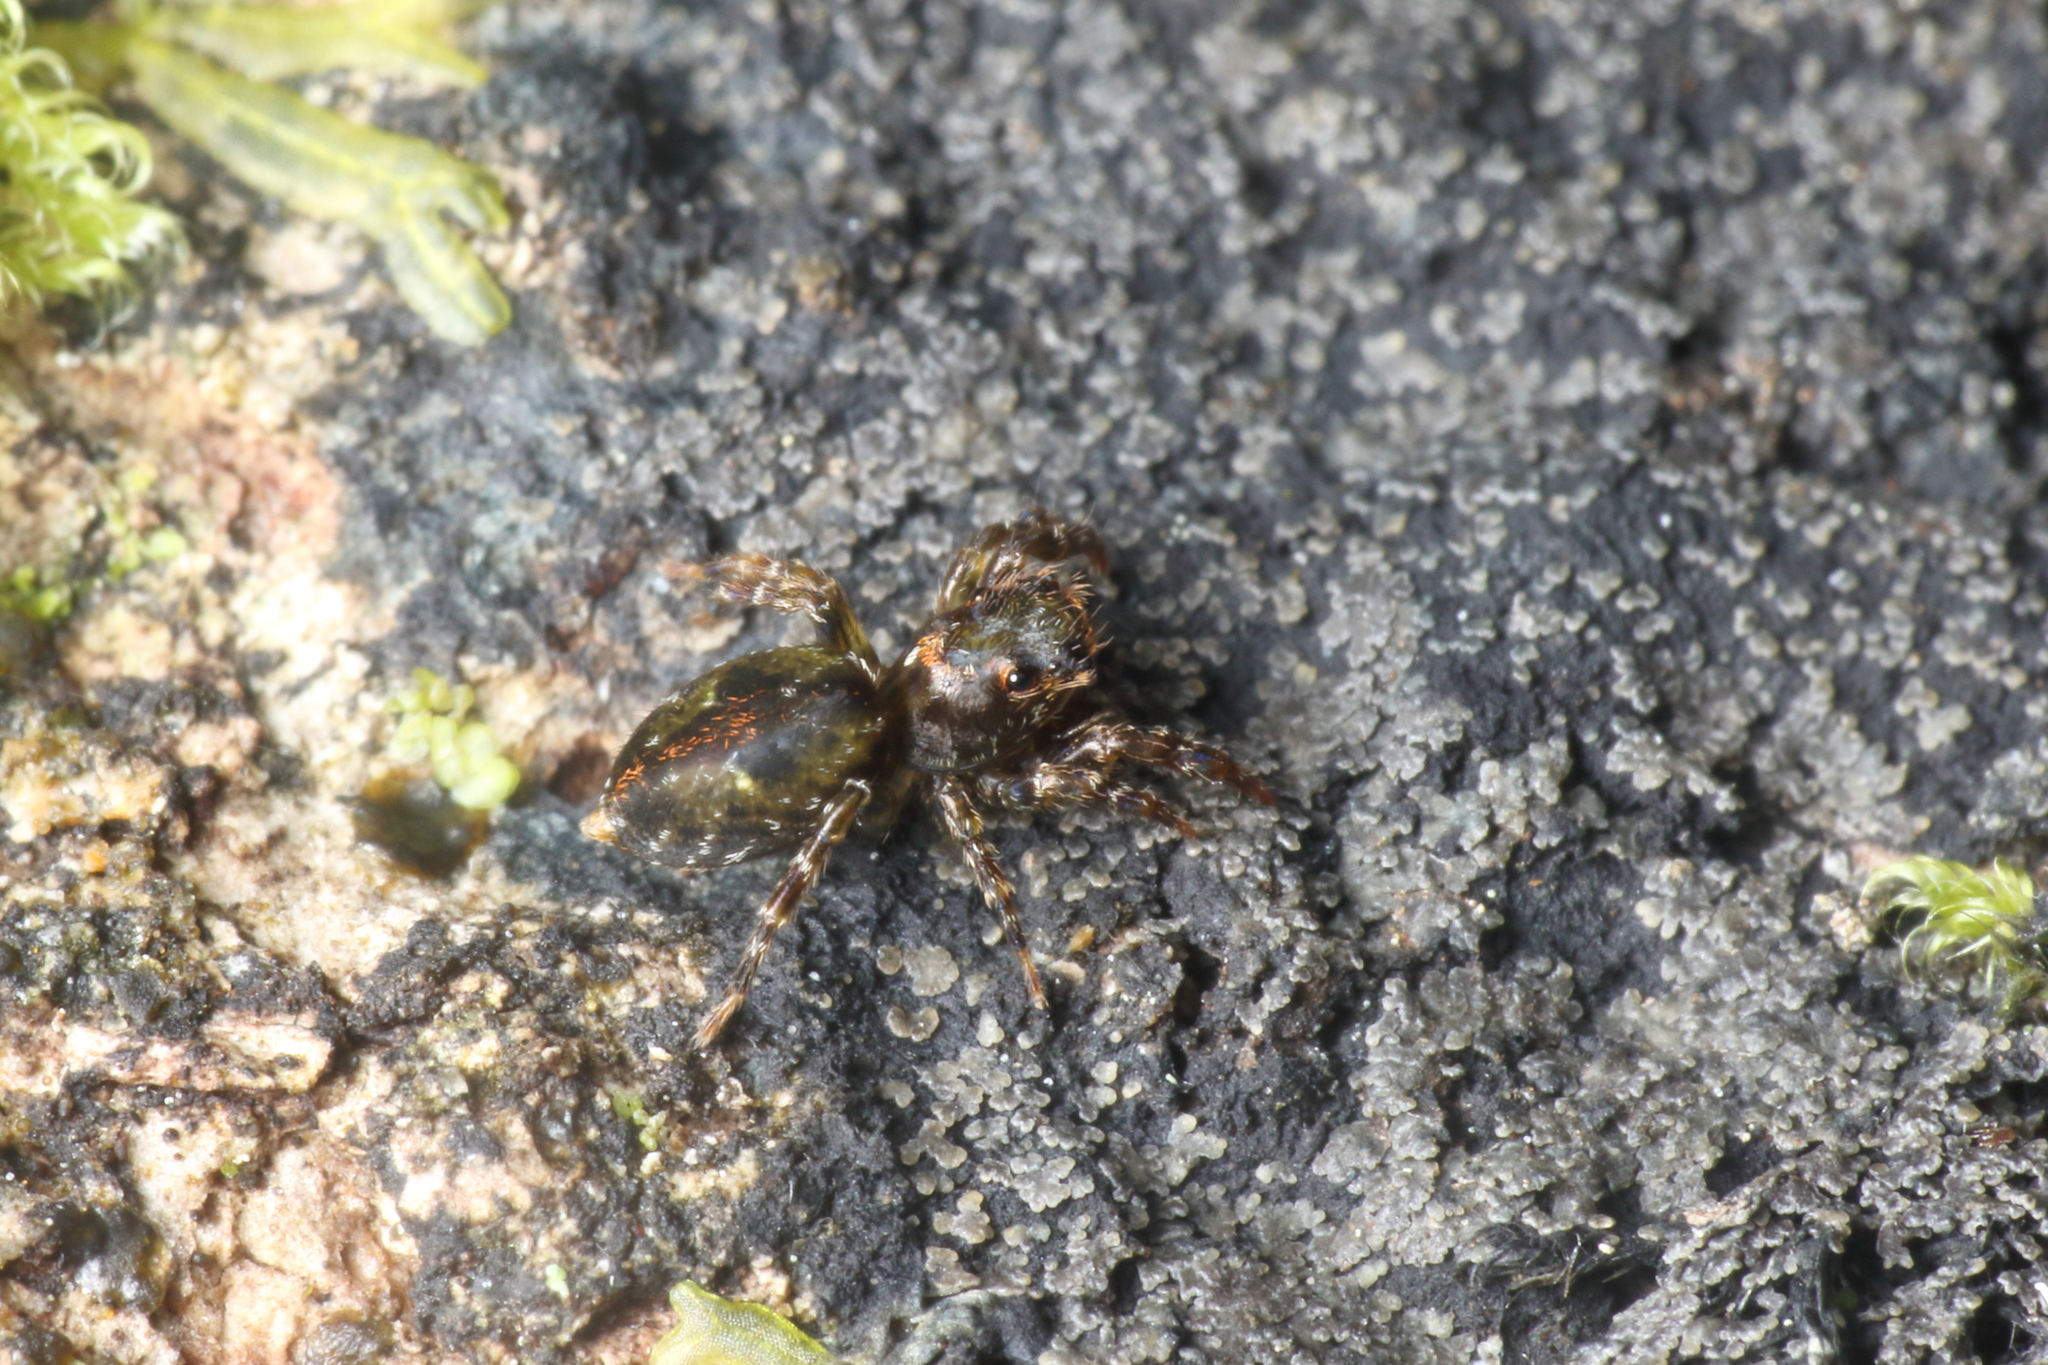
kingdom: Animalia
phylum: Arthropoda
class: Arachnida
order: Araneae
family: Salticidae
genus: Hinewaia
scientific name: Hinewaia embolica
